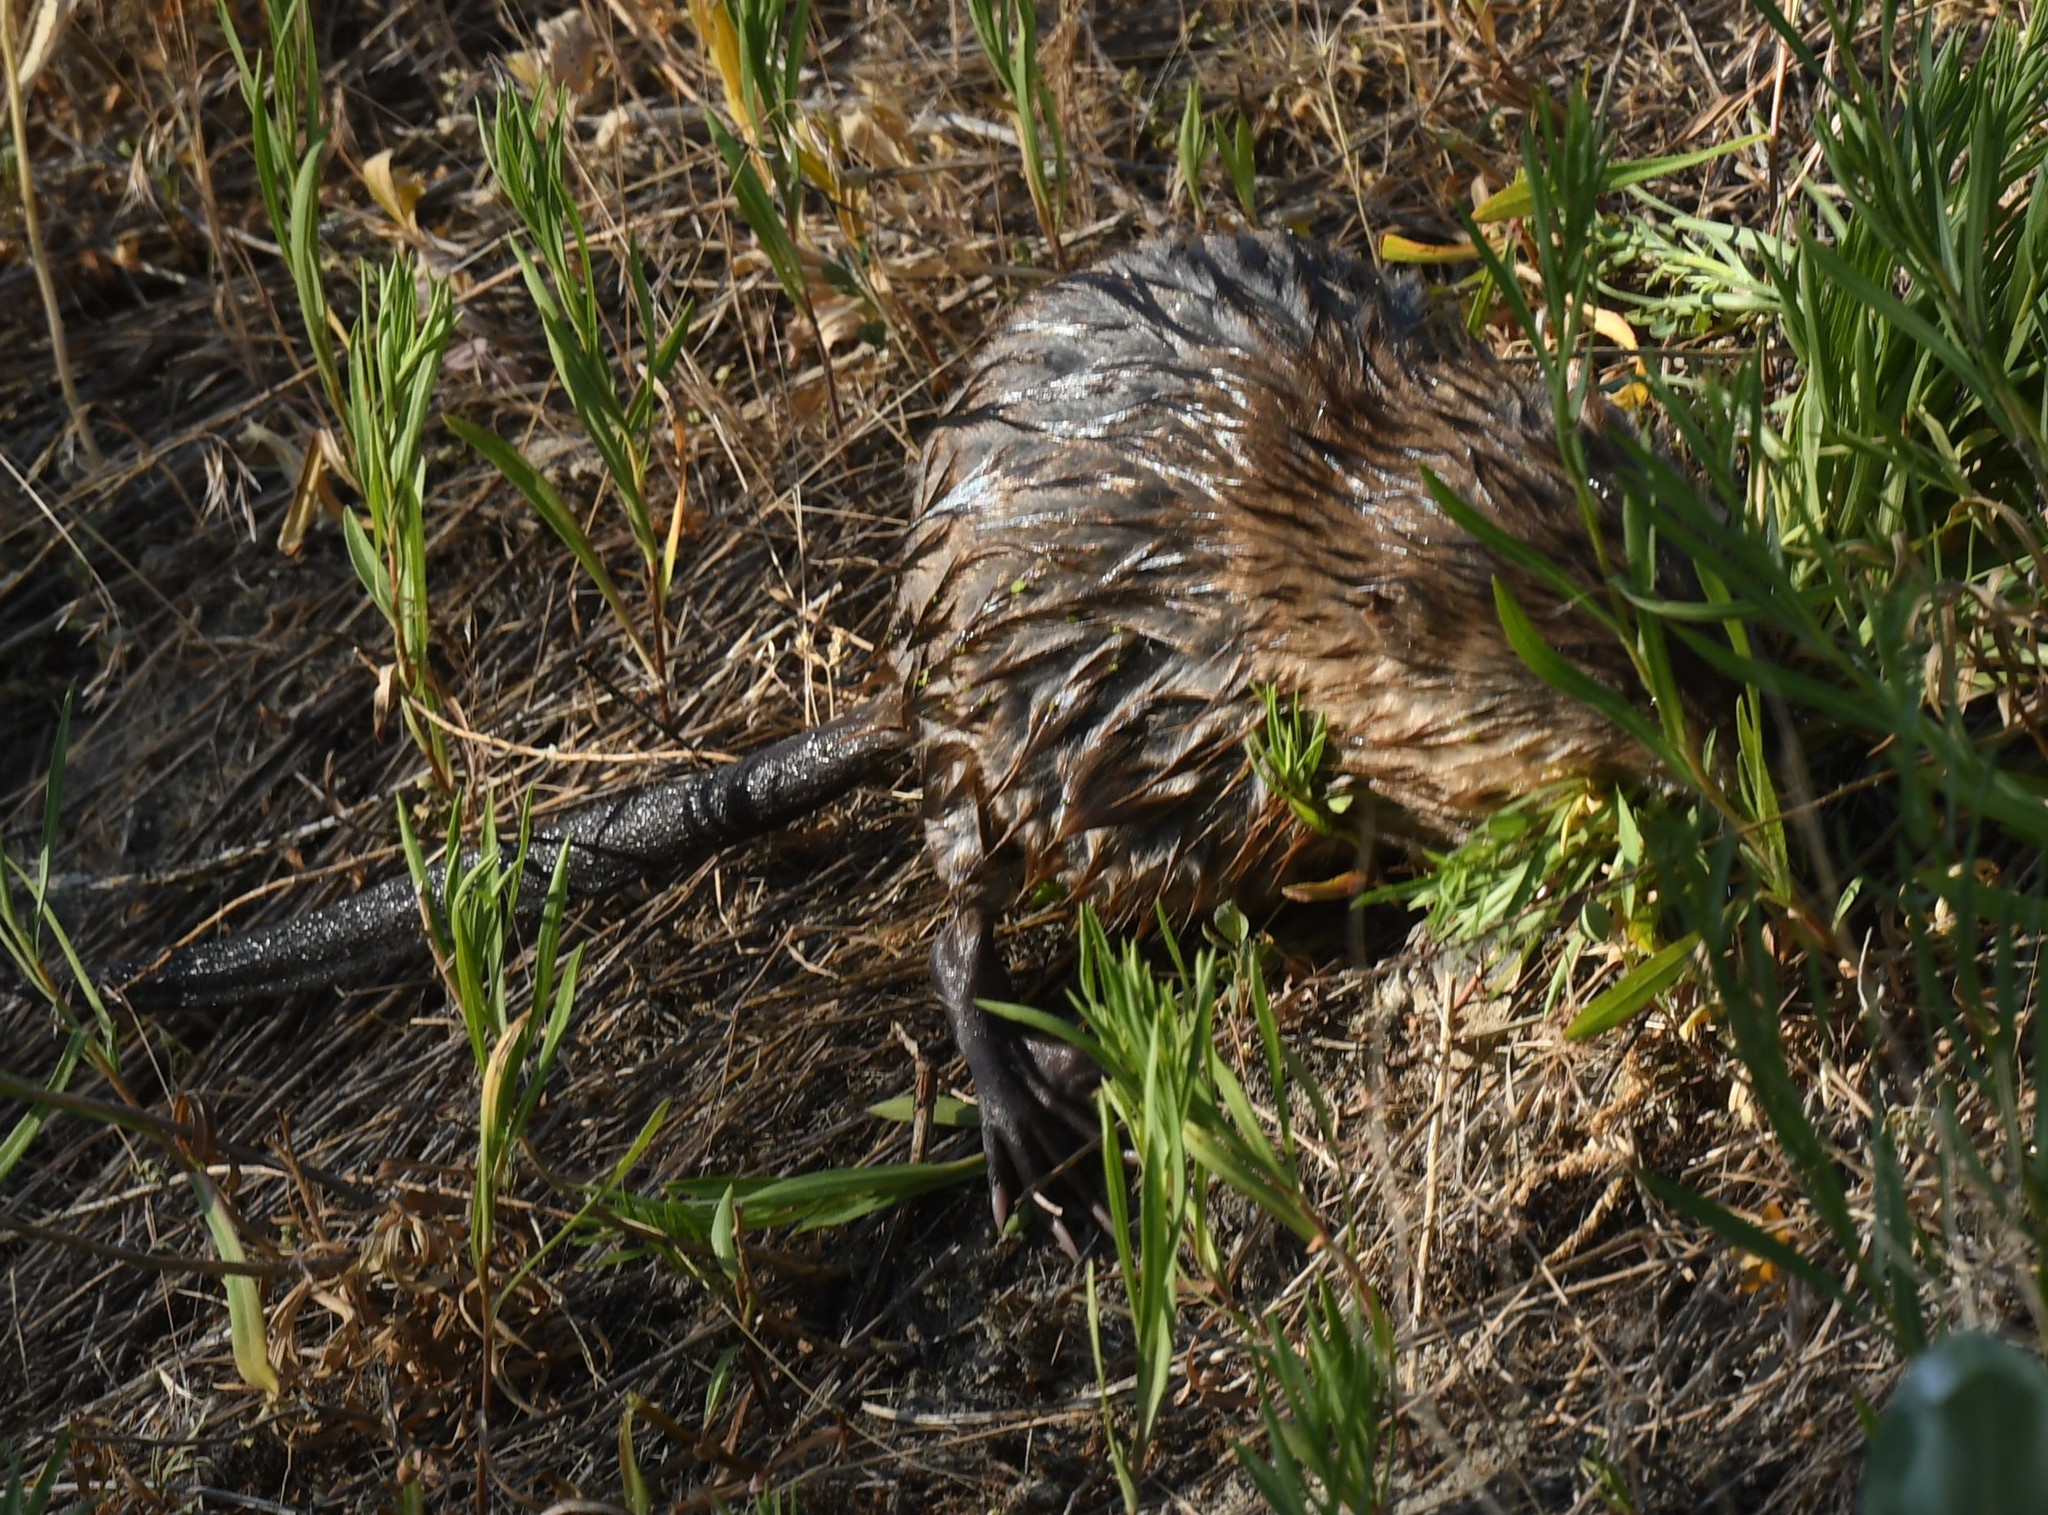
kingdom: Animalia
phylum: Chordata
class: Mammalia
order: Rodentia
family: Cricetidae
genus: Ondatra
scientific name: Ondatra zibethicus
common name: Muskrat
